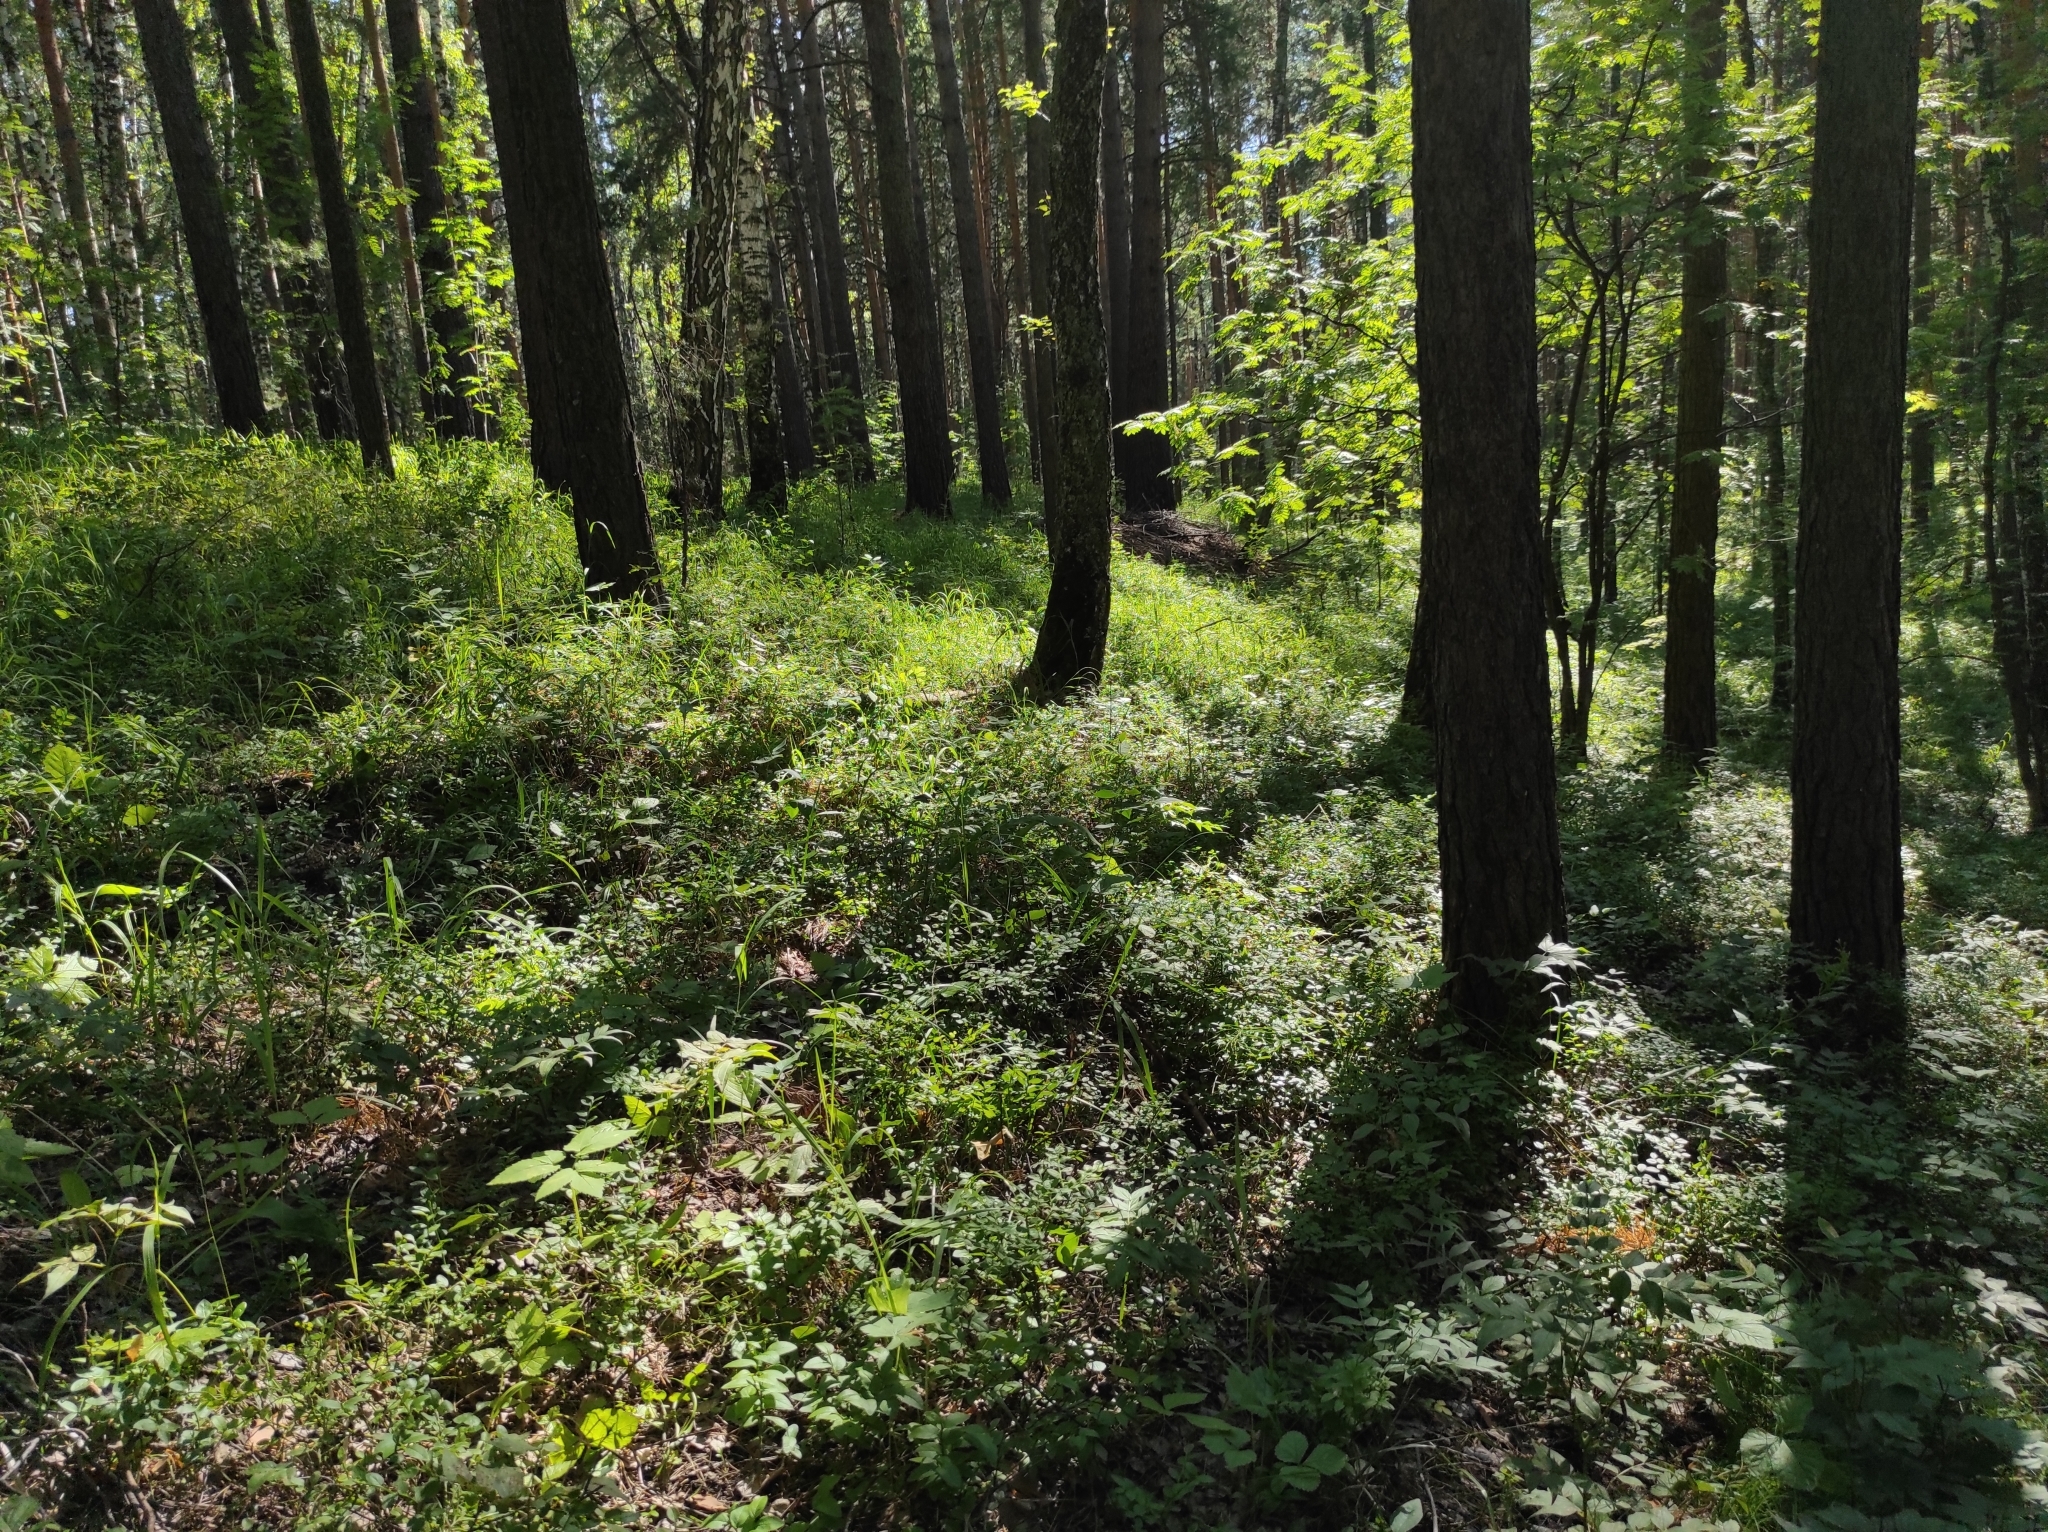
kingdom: Plantae
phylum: Tracheophyta
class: Pinopsida
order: Pinales
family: Pinaceae
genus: Pinus
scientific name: Pinus sylvestris
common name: Scots pine
